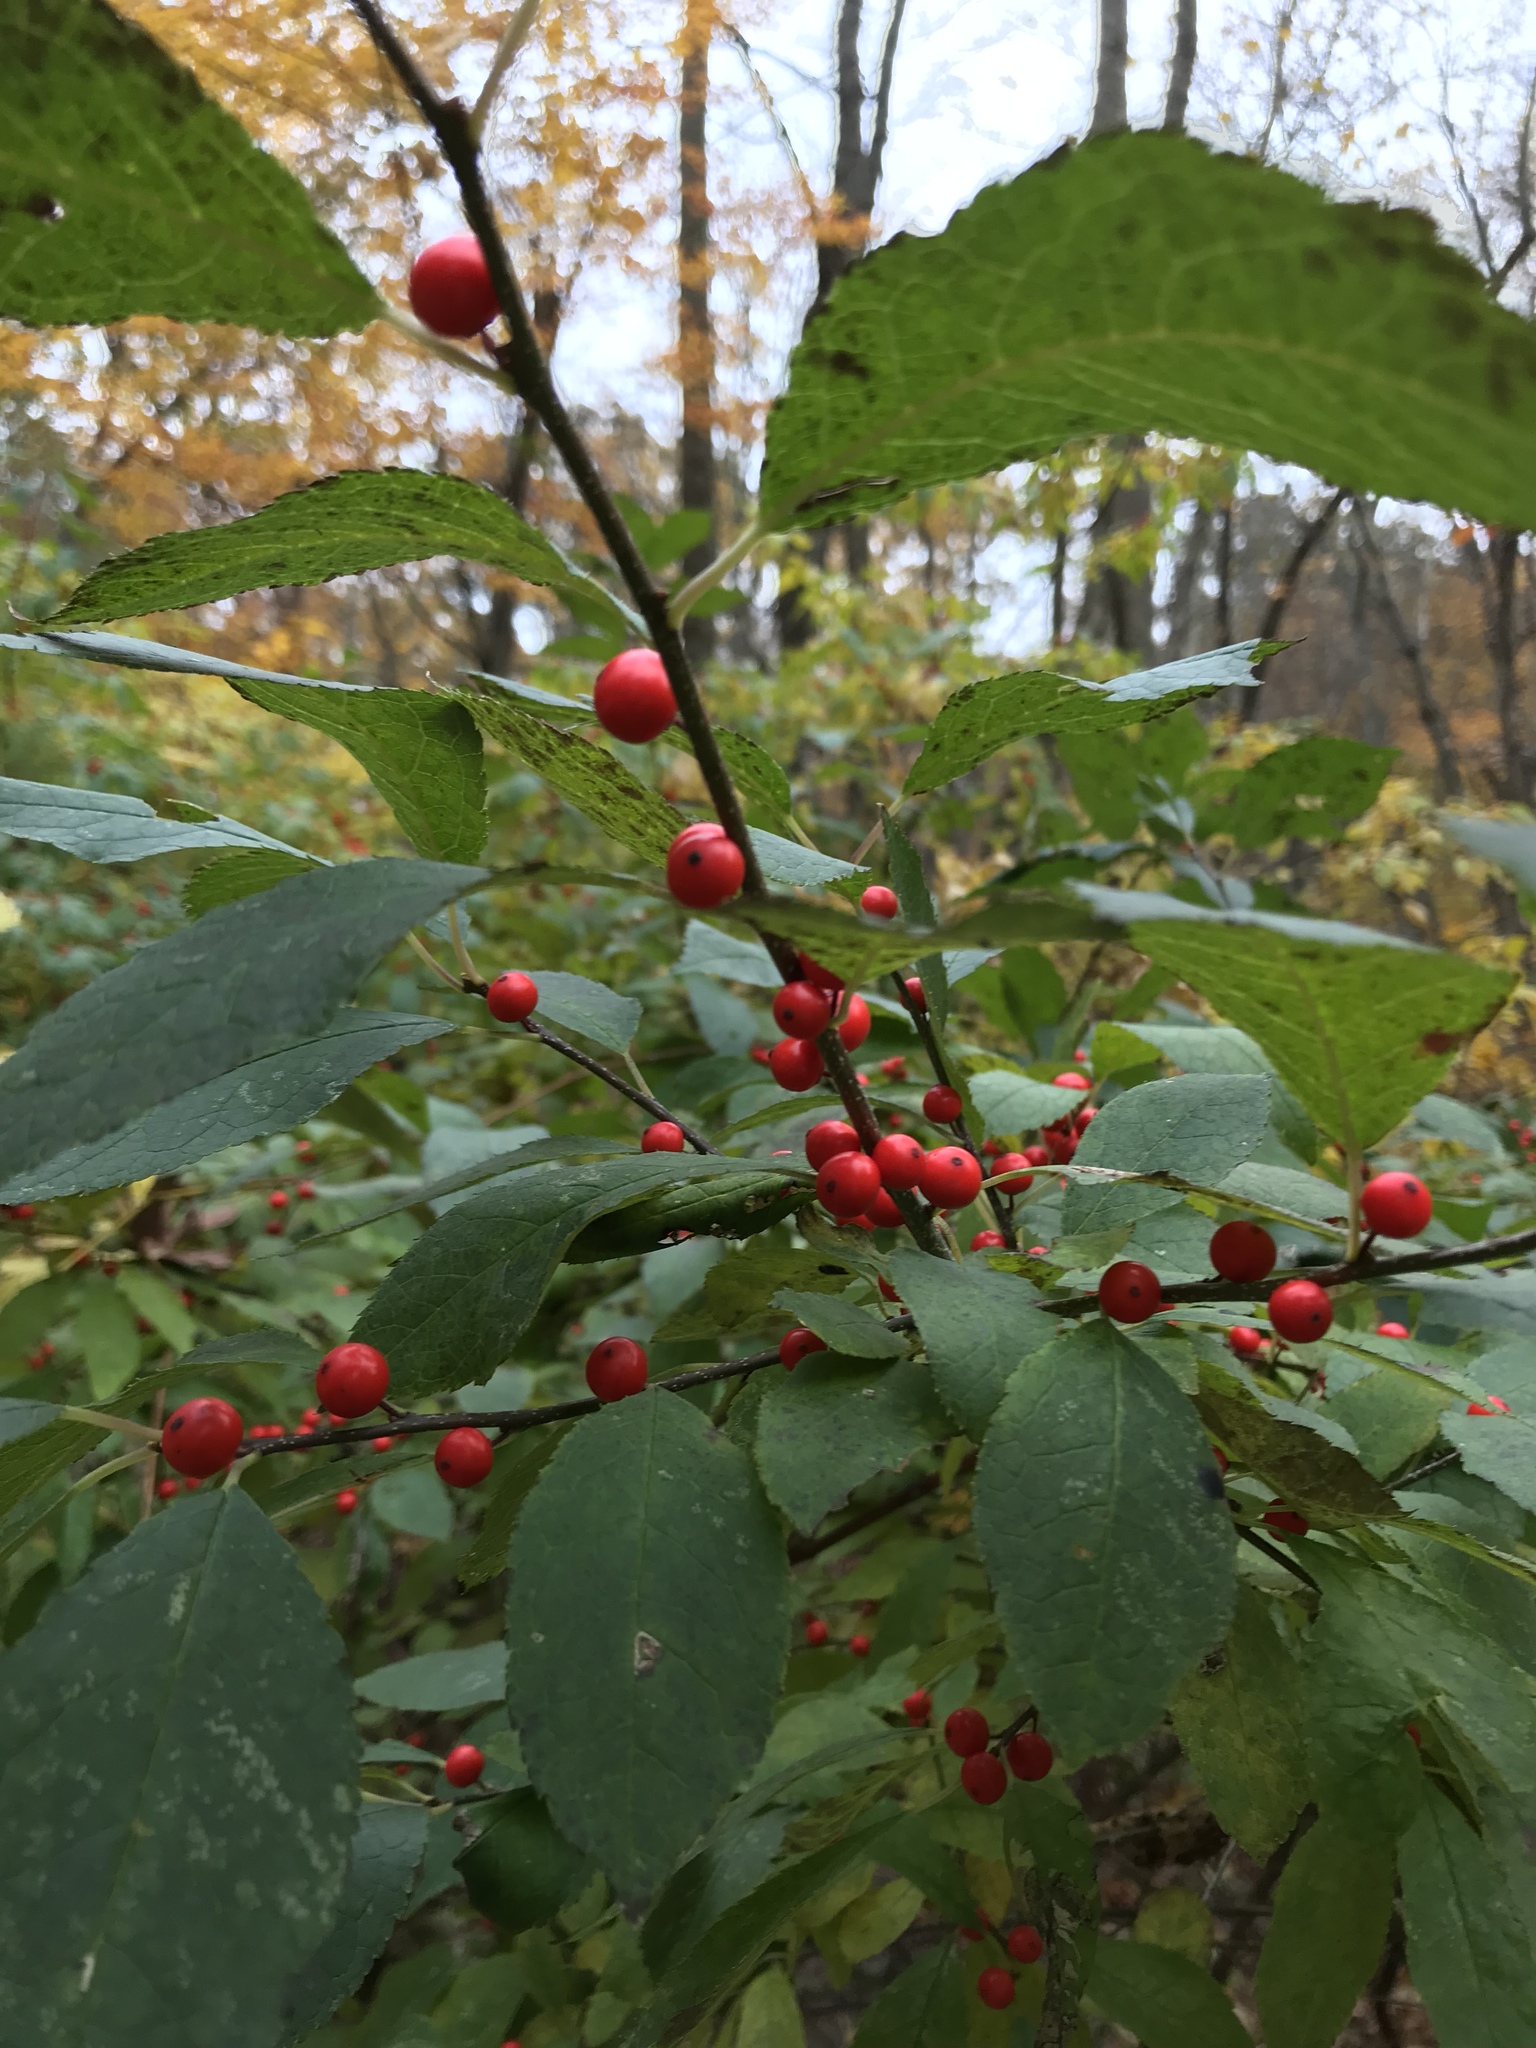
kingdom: Plantae
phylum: Tracheophyta
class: Magnoliopsida
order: Aquifoliales
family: Aquifoliaceae
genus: Ilex
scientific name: Ilex verticillata
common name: Virginia winterberry
